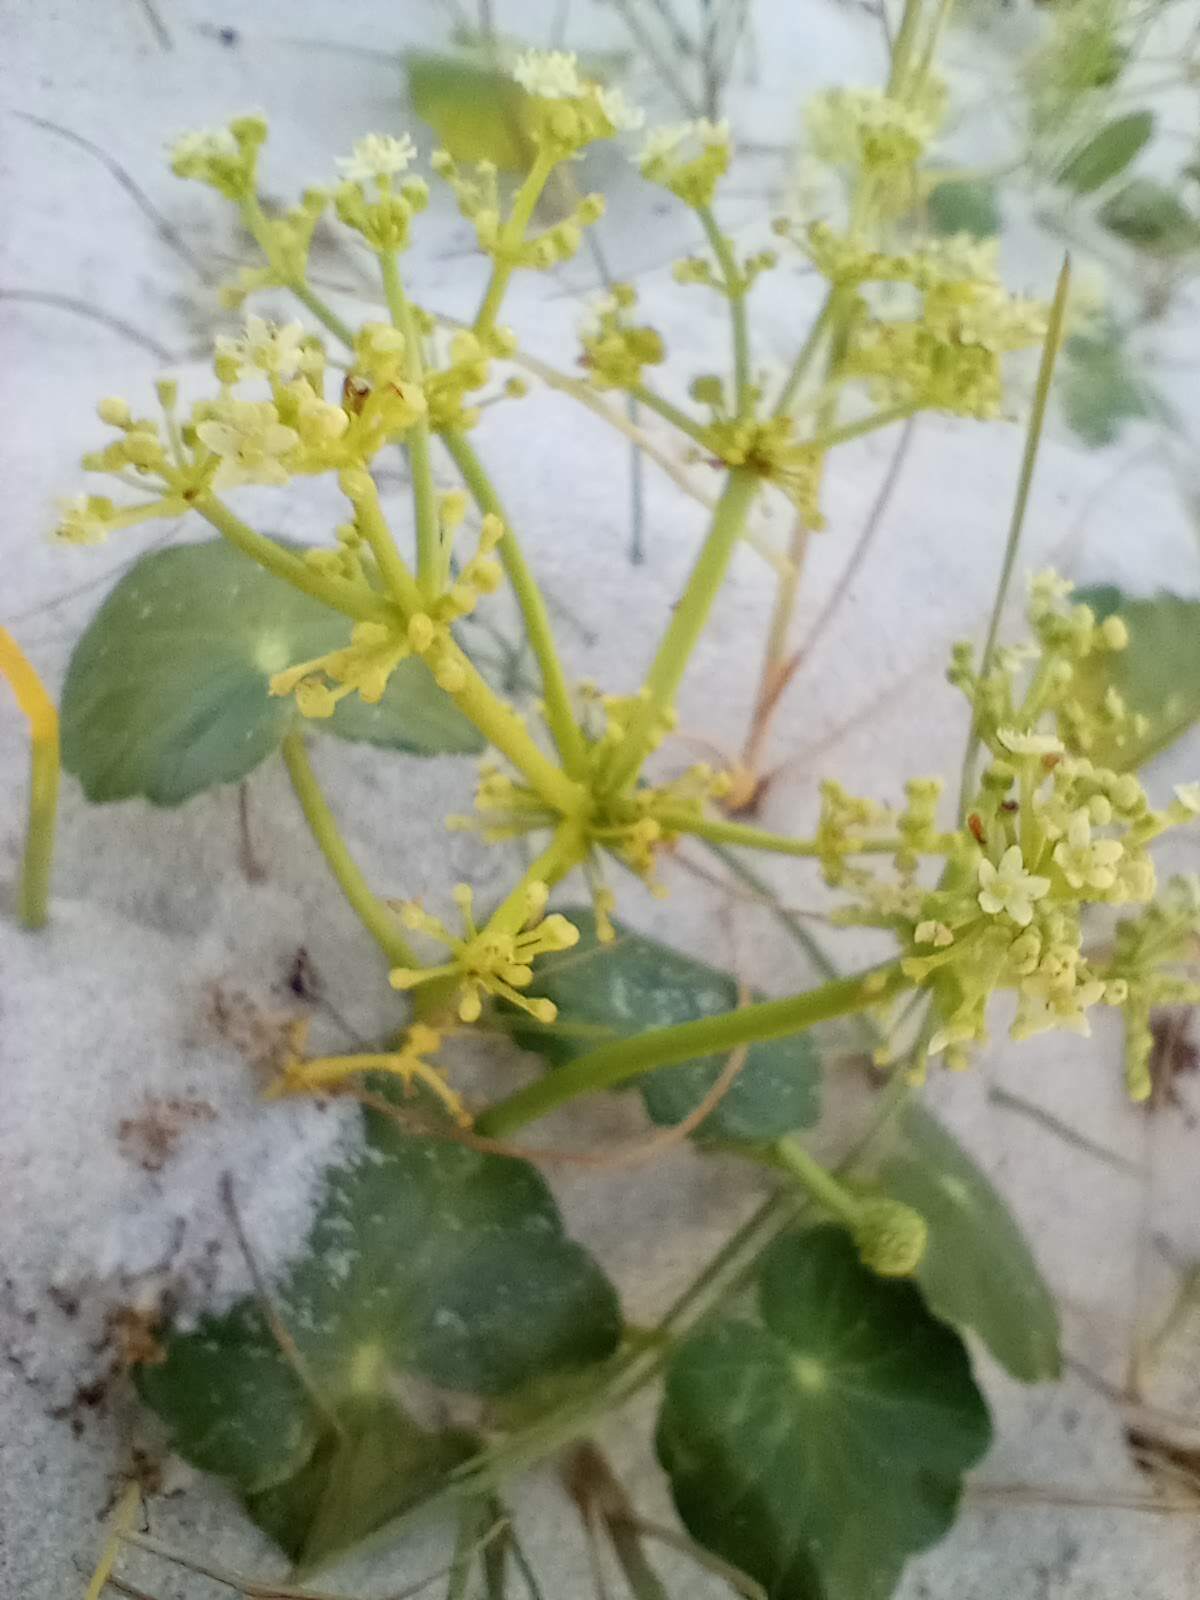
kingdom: Plantae
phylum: Tracheophyta
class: Magnoliopsida
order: Apiales
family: Araliaceae
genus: Hydrocotyle
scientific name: Hydrocotyle bonariensis
